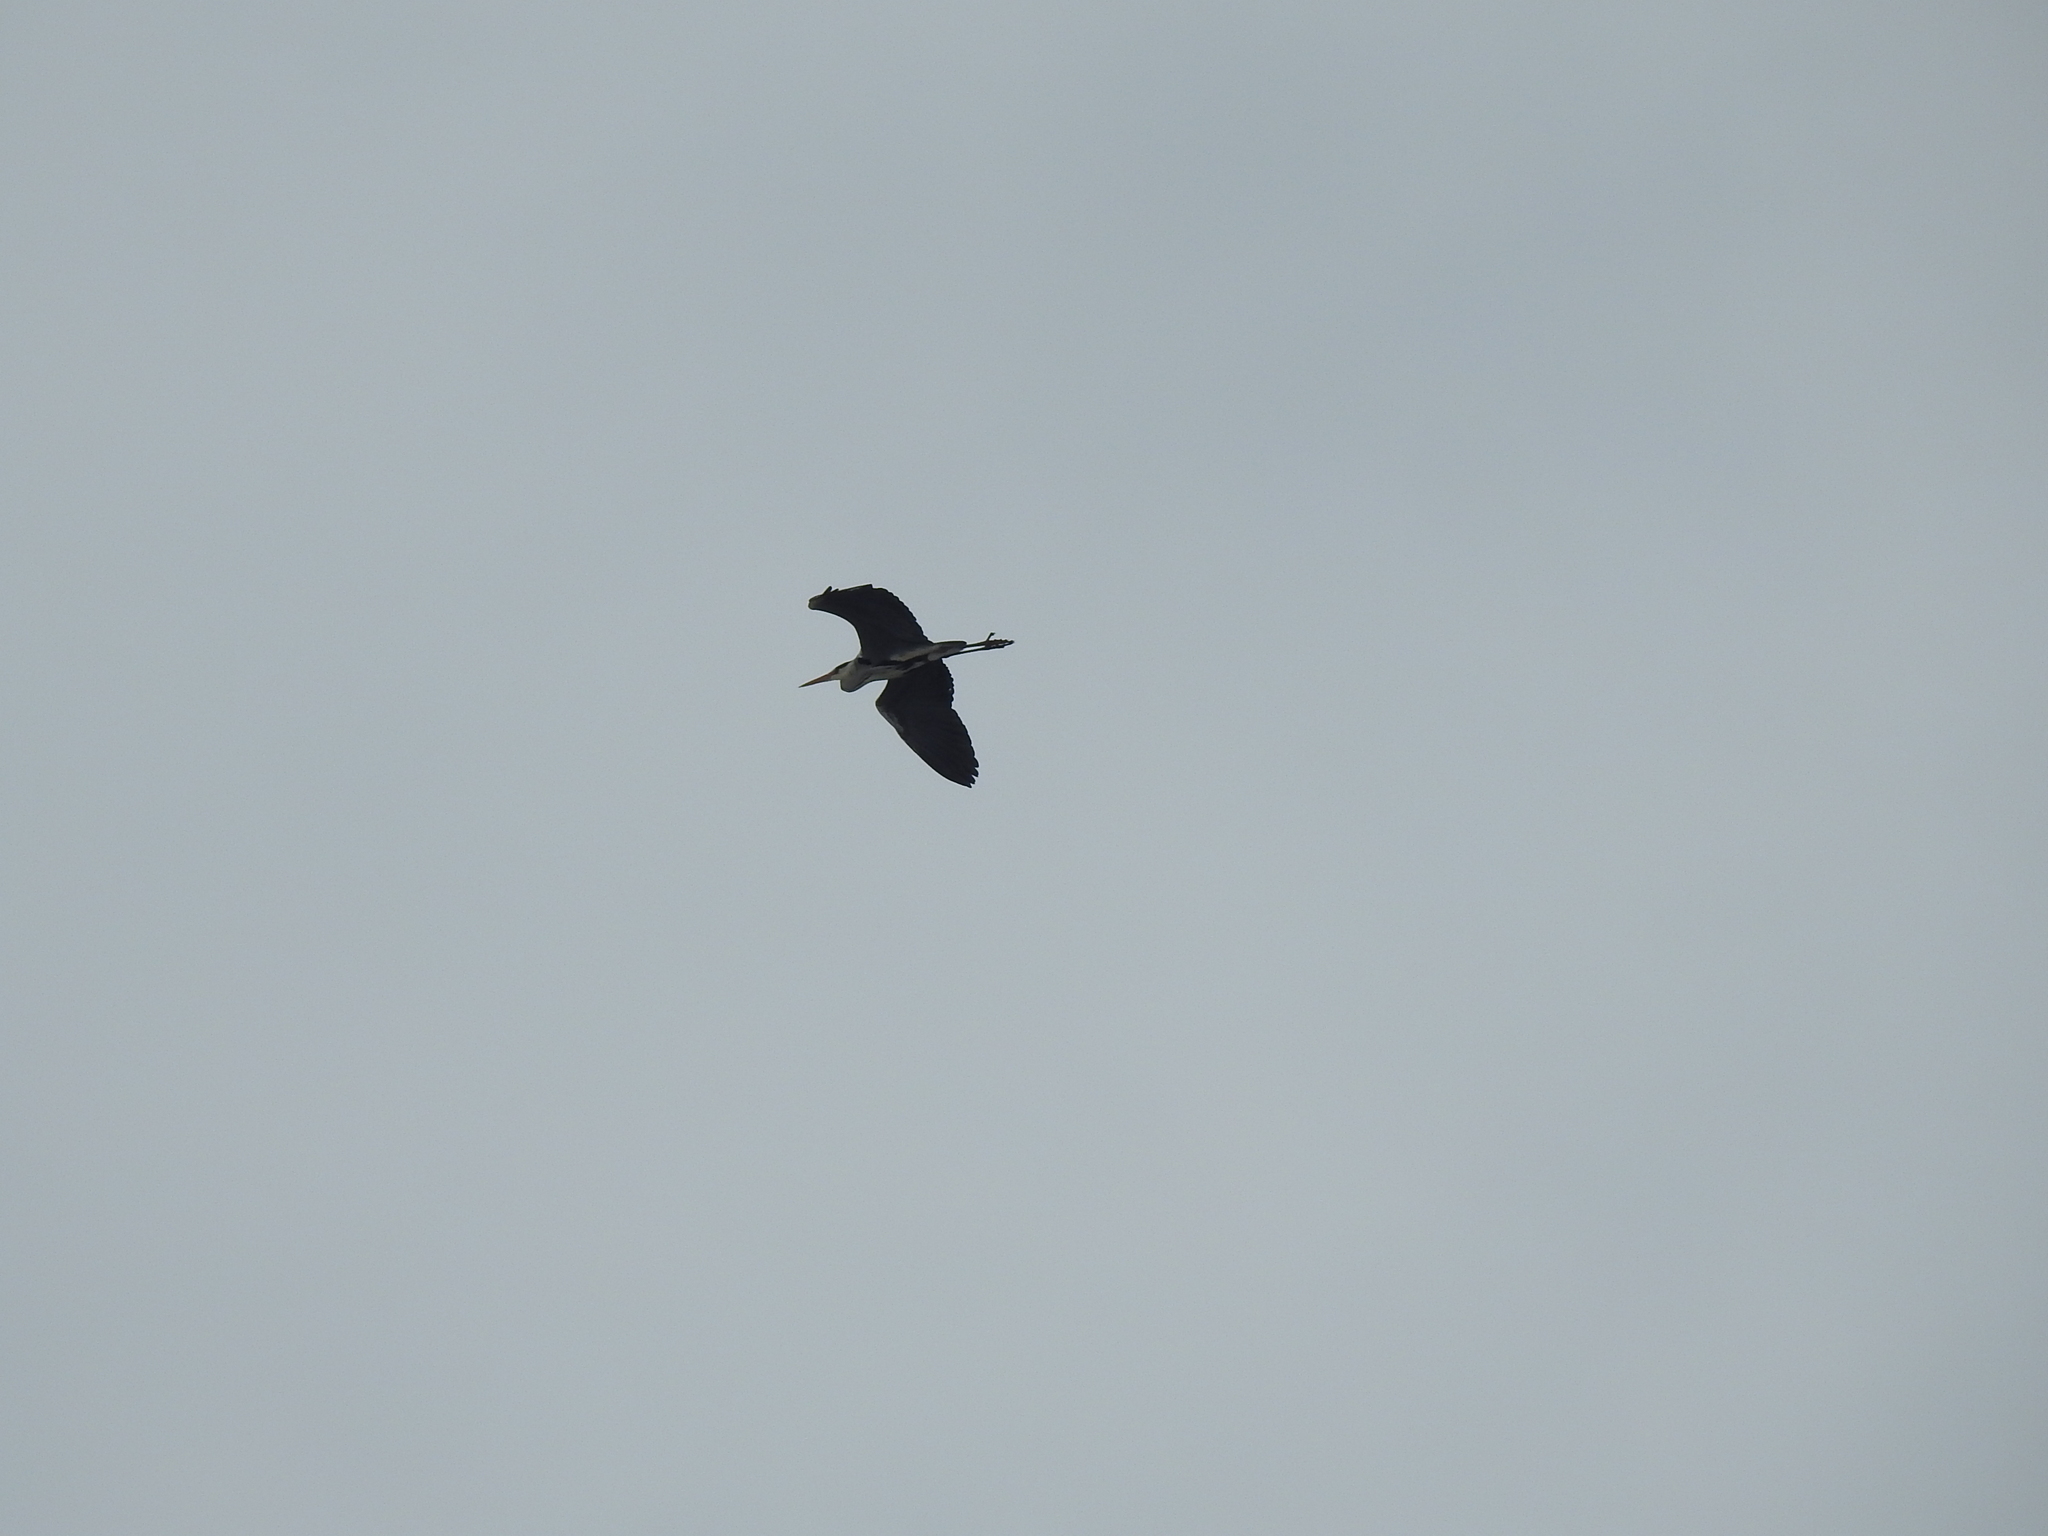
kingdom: Animalia
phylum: Chordata
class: Aves
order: Pelecaniformes
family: Ardeidae
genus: Ardea
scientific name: Ardea cinerea
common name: Grey heron
